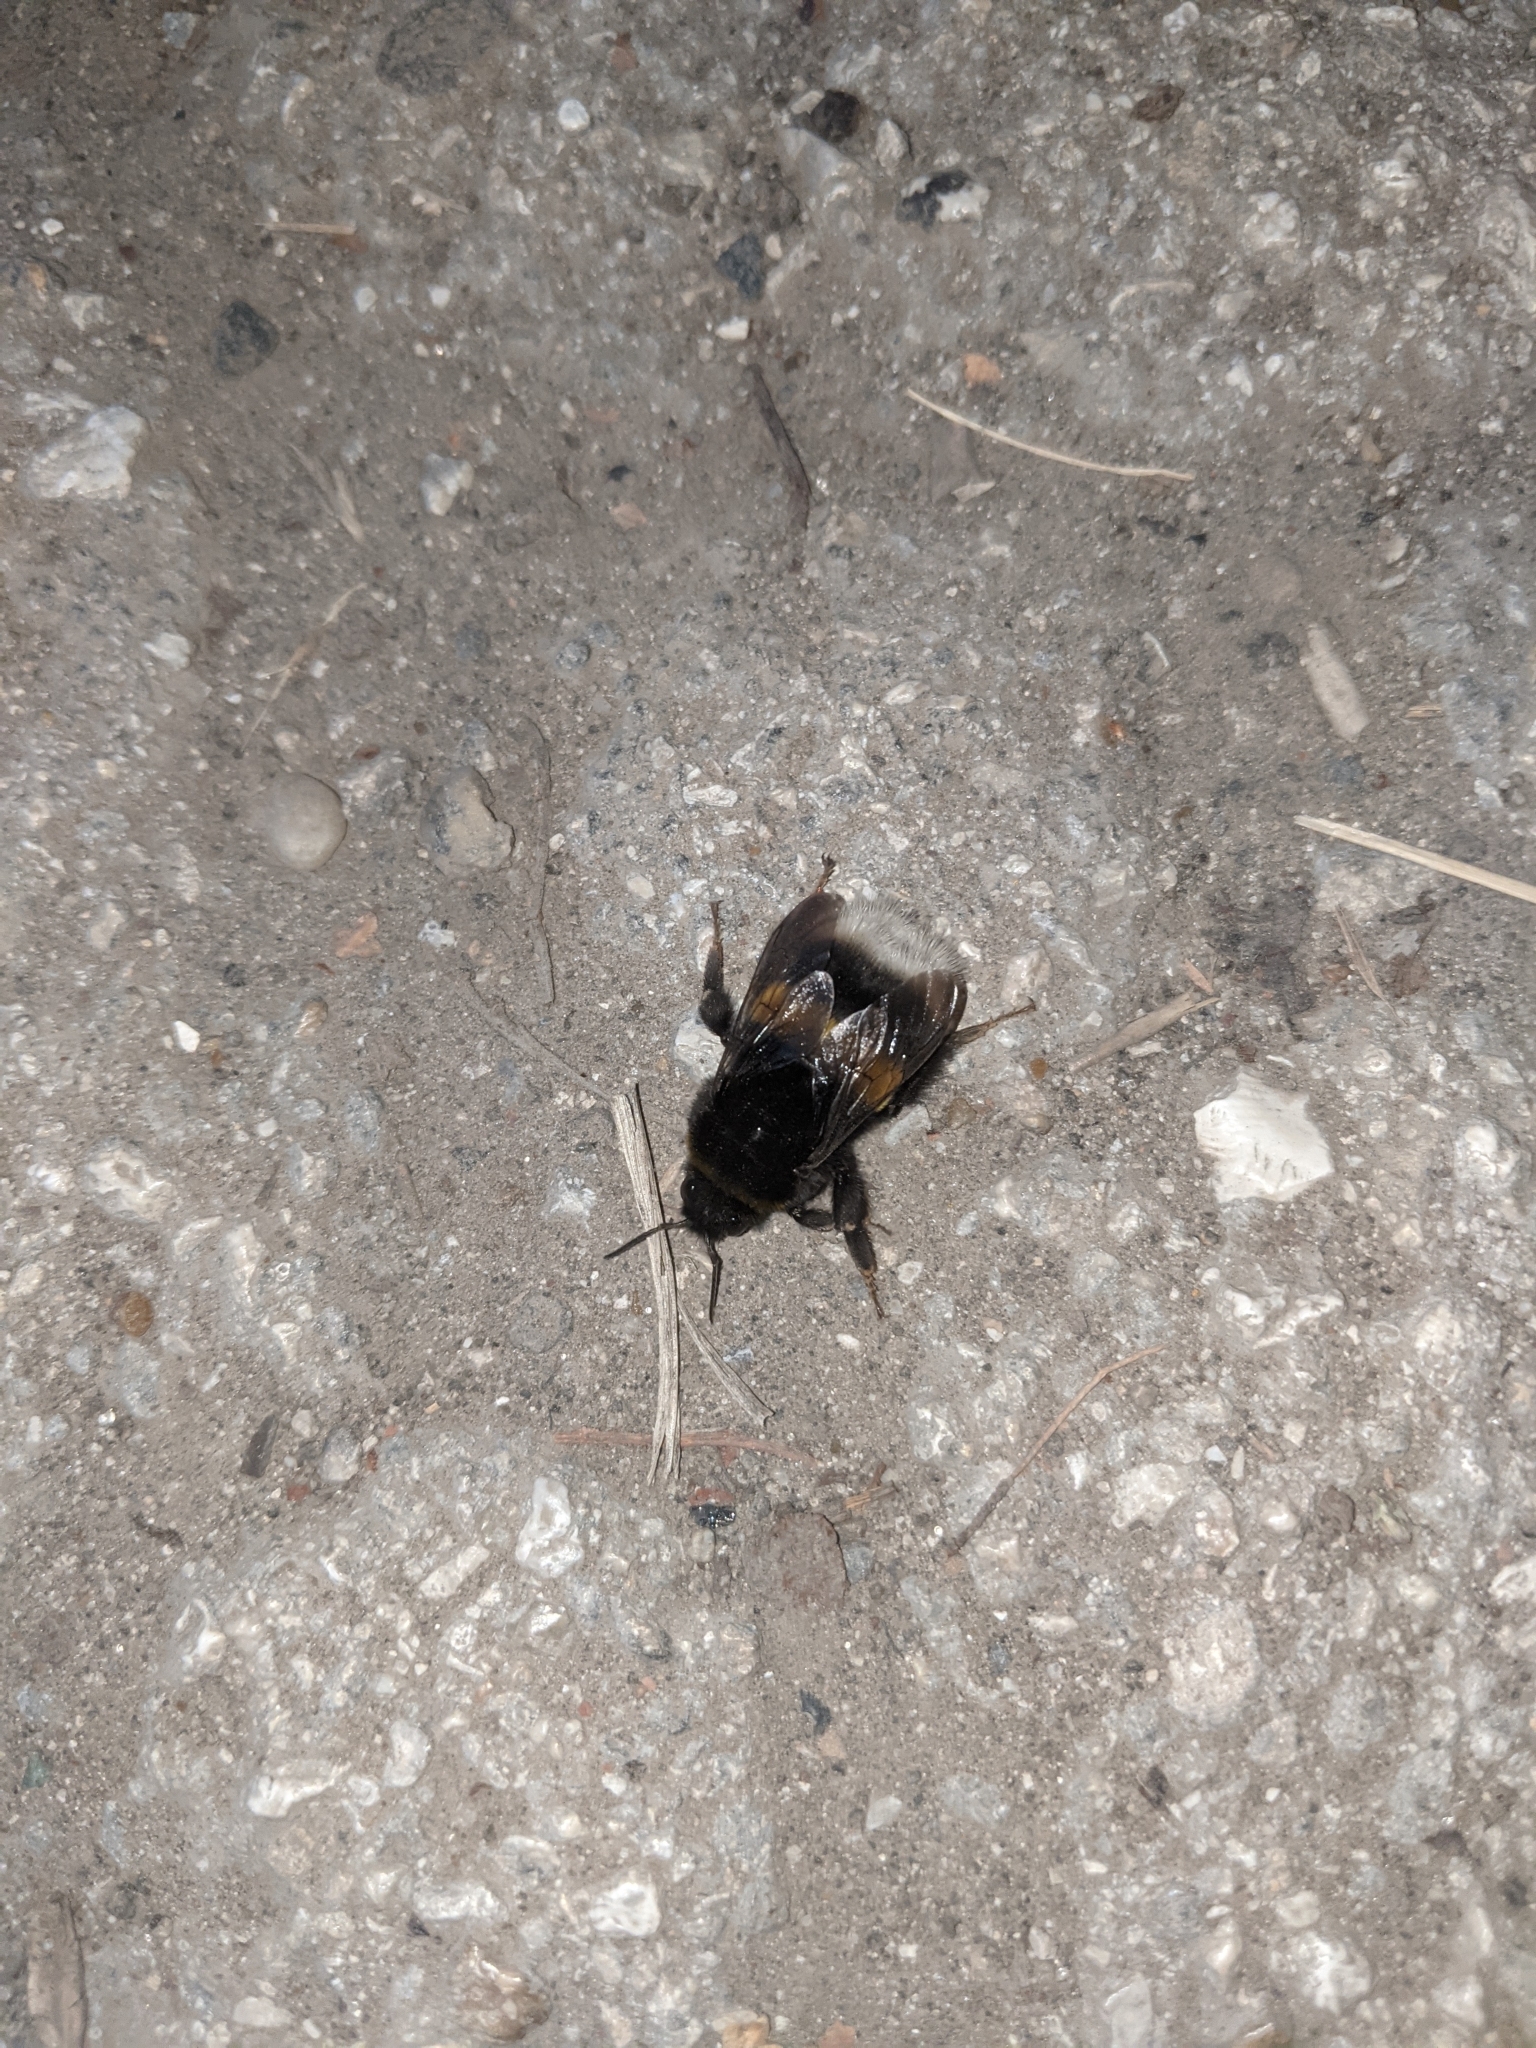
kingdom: Animalia
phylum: Arthropoda
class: Insecta
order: Hymenoptera
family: Apidae
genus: Bombus
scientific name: Bombus
